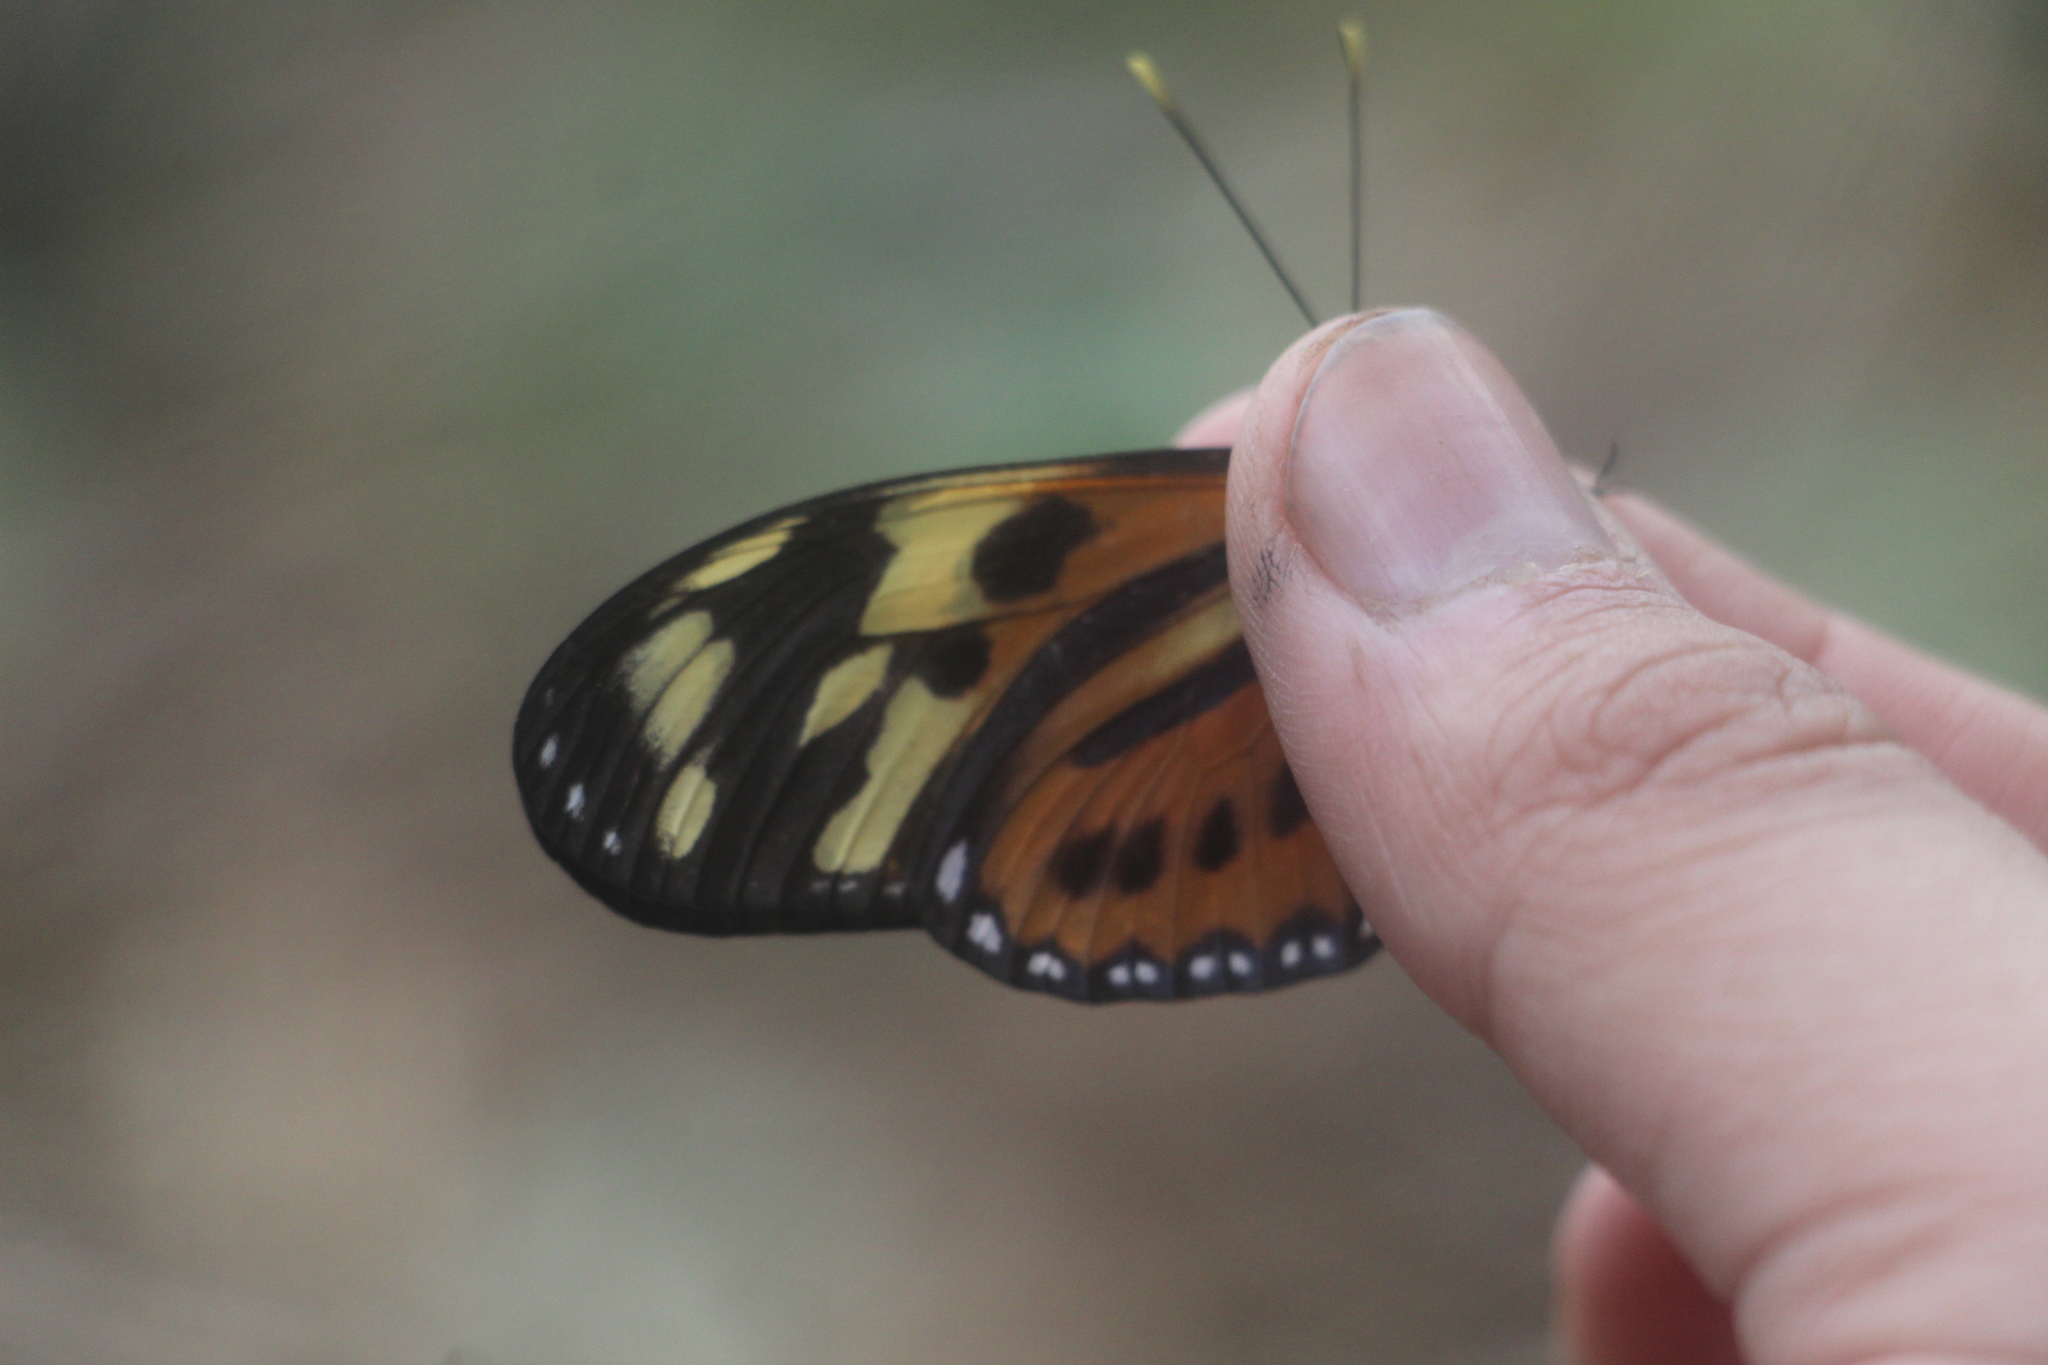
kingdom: Animalia
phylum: Arthropoda
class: Insecta
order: Lepidoptera
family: Nymphalidae
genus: Eueides
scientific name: Eueides isabella
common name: Isabella's longwing
